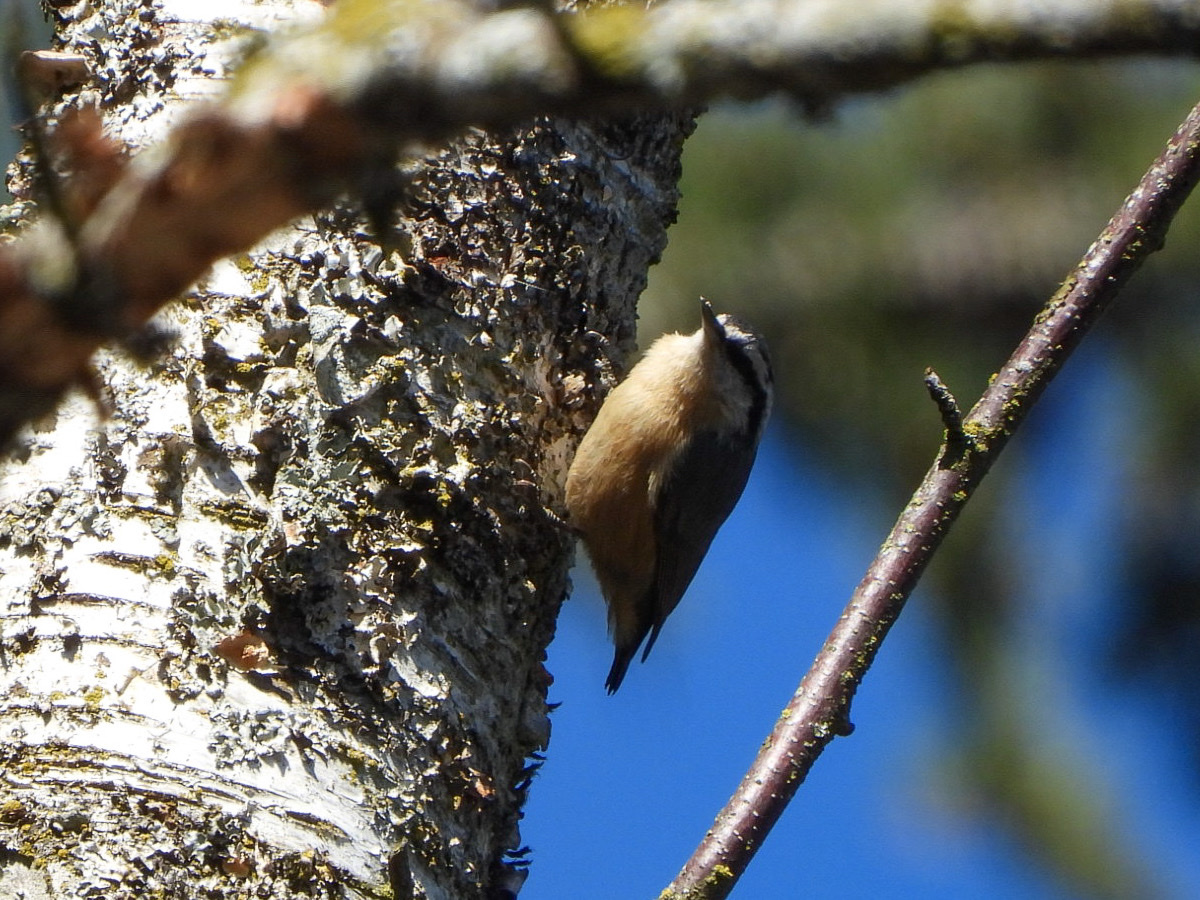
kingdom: Animalia
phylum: Chordata
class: Aves
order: Passeriformes
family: Sittidae
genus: Sitta
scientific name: Sitta canadensis
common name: Red-breasted nuthatch
